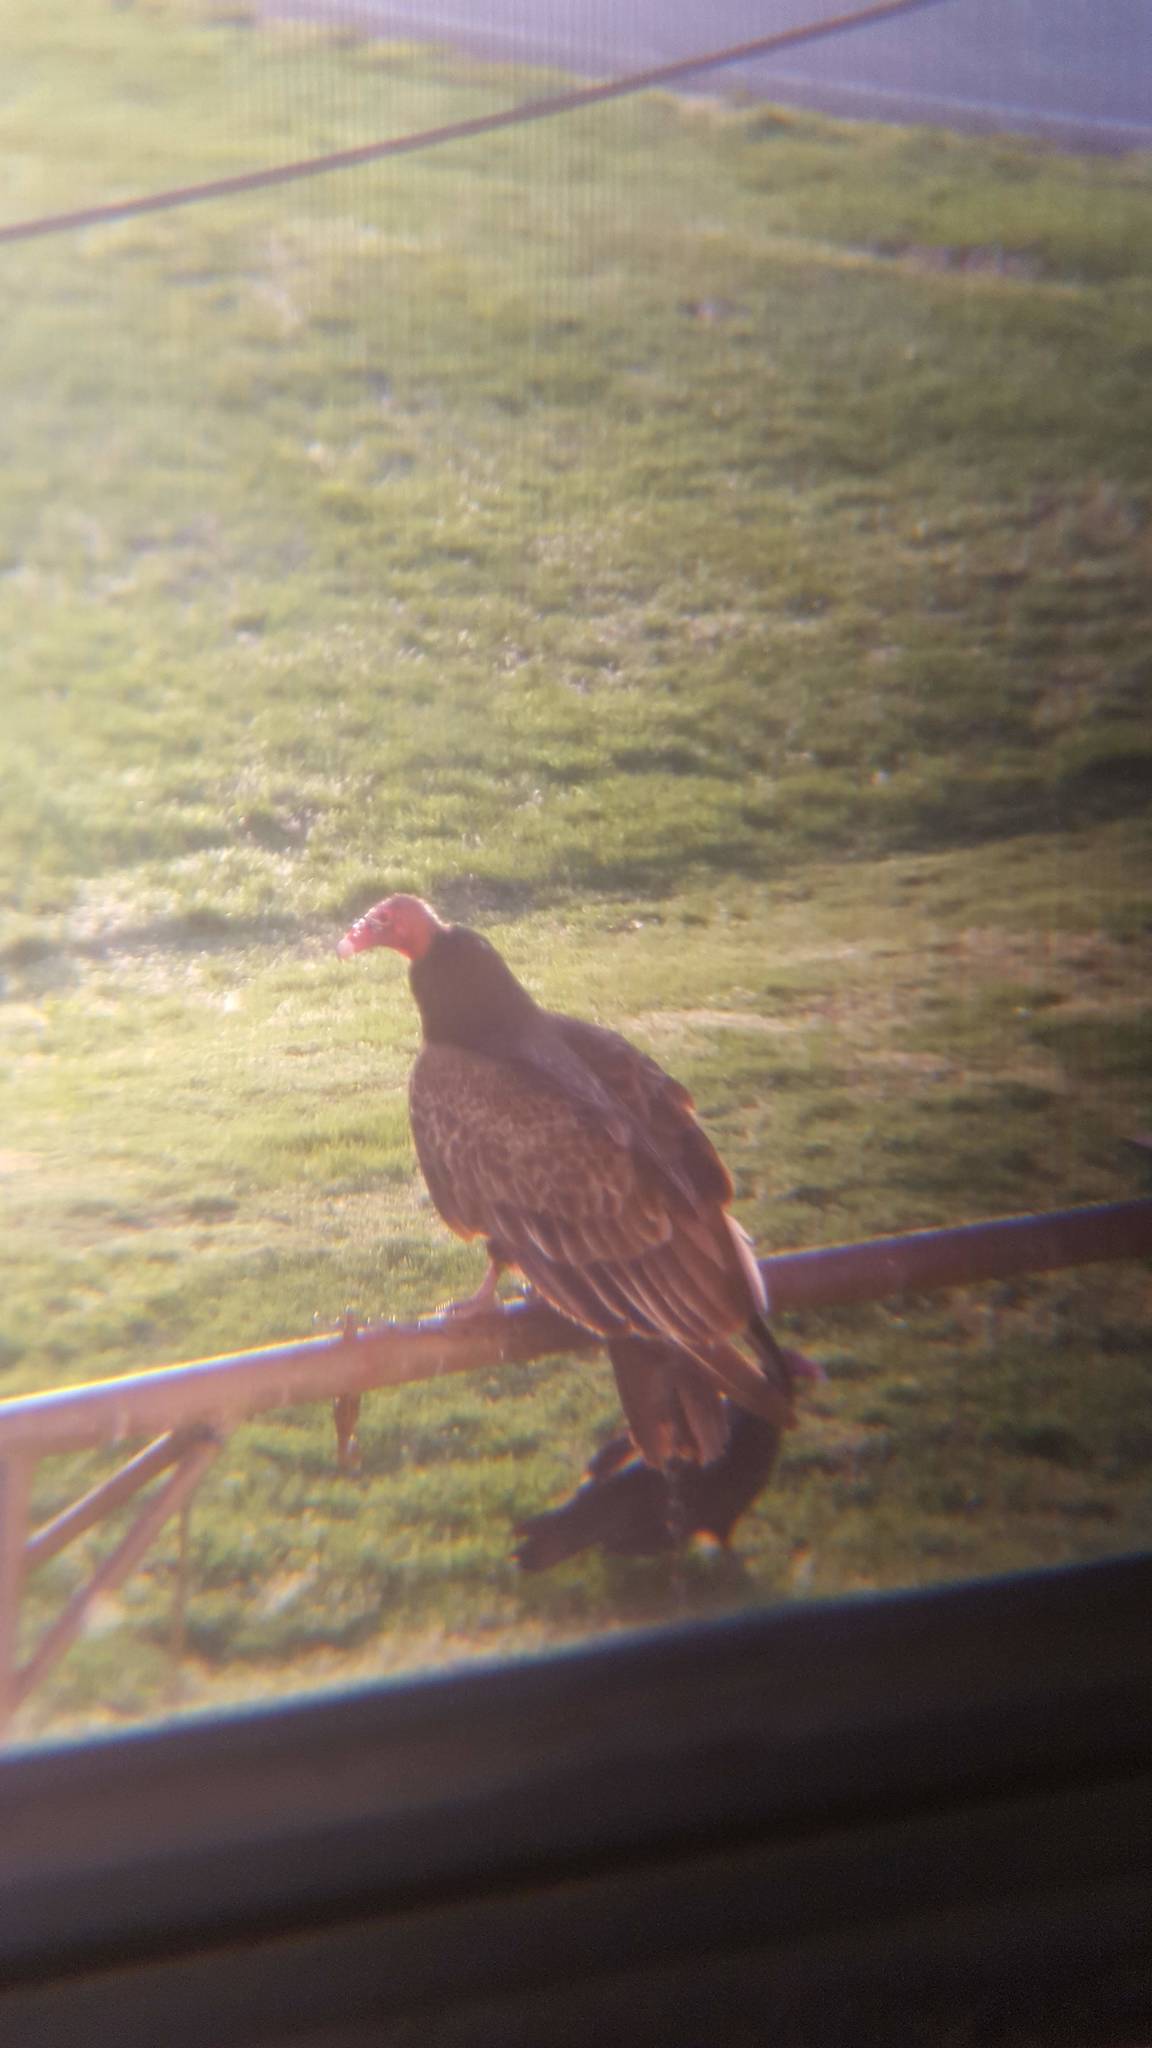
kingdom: Animalia
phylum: Chordata
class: Aves
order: Accipitriformes
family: Cathartidae
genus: Cathartes
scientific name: Cathartes aura
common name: Turkey vulture
